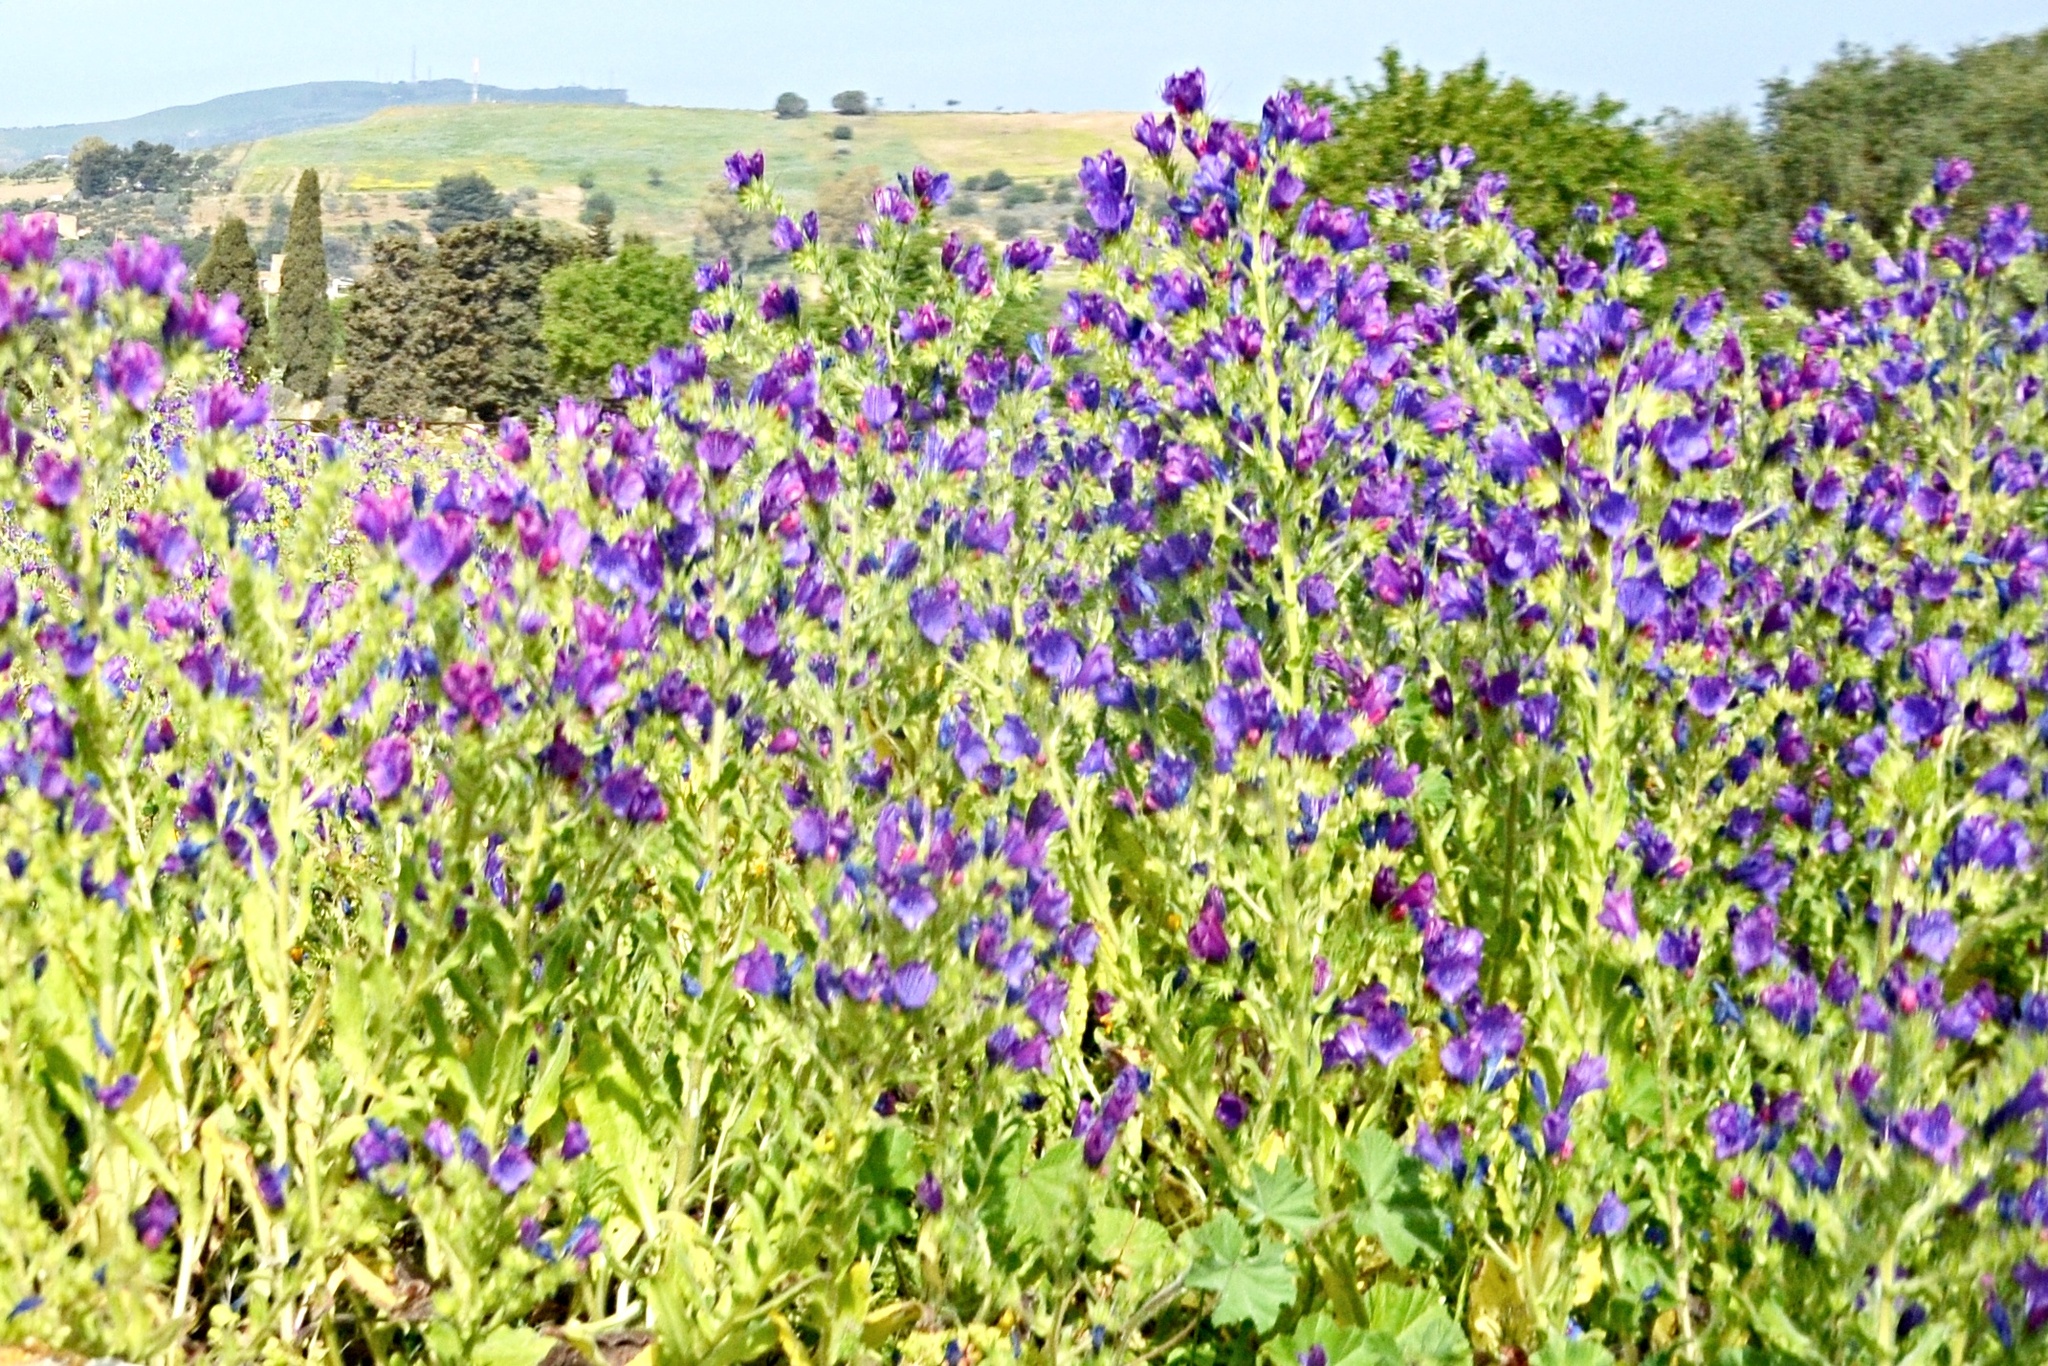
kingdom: Plantae
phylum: Tracheophyta
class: Magnoliopsida
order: Boraginales
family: Boraginaceae
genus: Echium
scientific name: Echium plantagineum
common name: Purple viper's-bugloss
